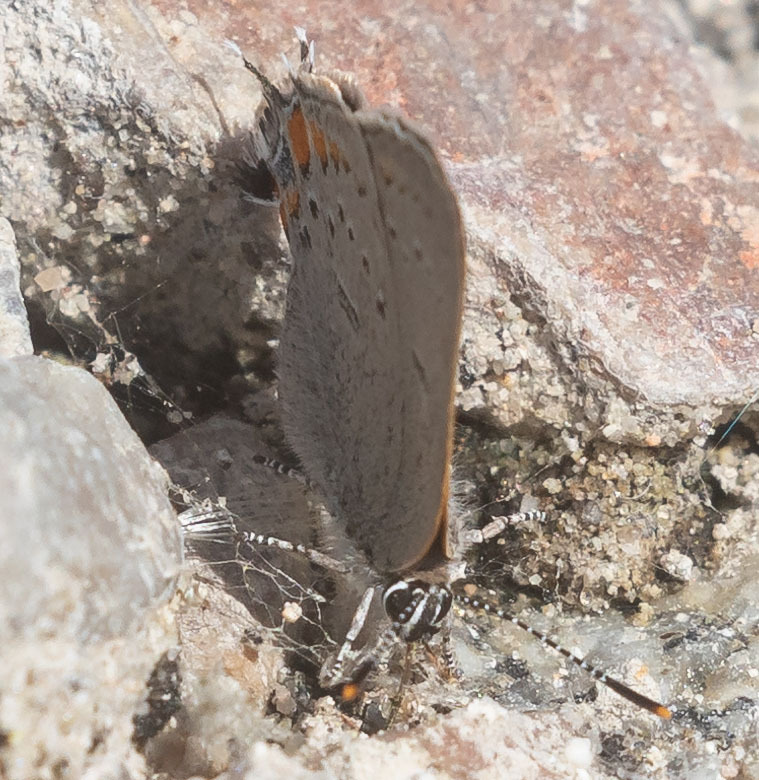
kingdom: Animalia
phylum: Arthropoda
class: Insecta
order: Lepidoptera
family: Lycaenidae
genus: Strymon
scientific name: Strymon acadica
